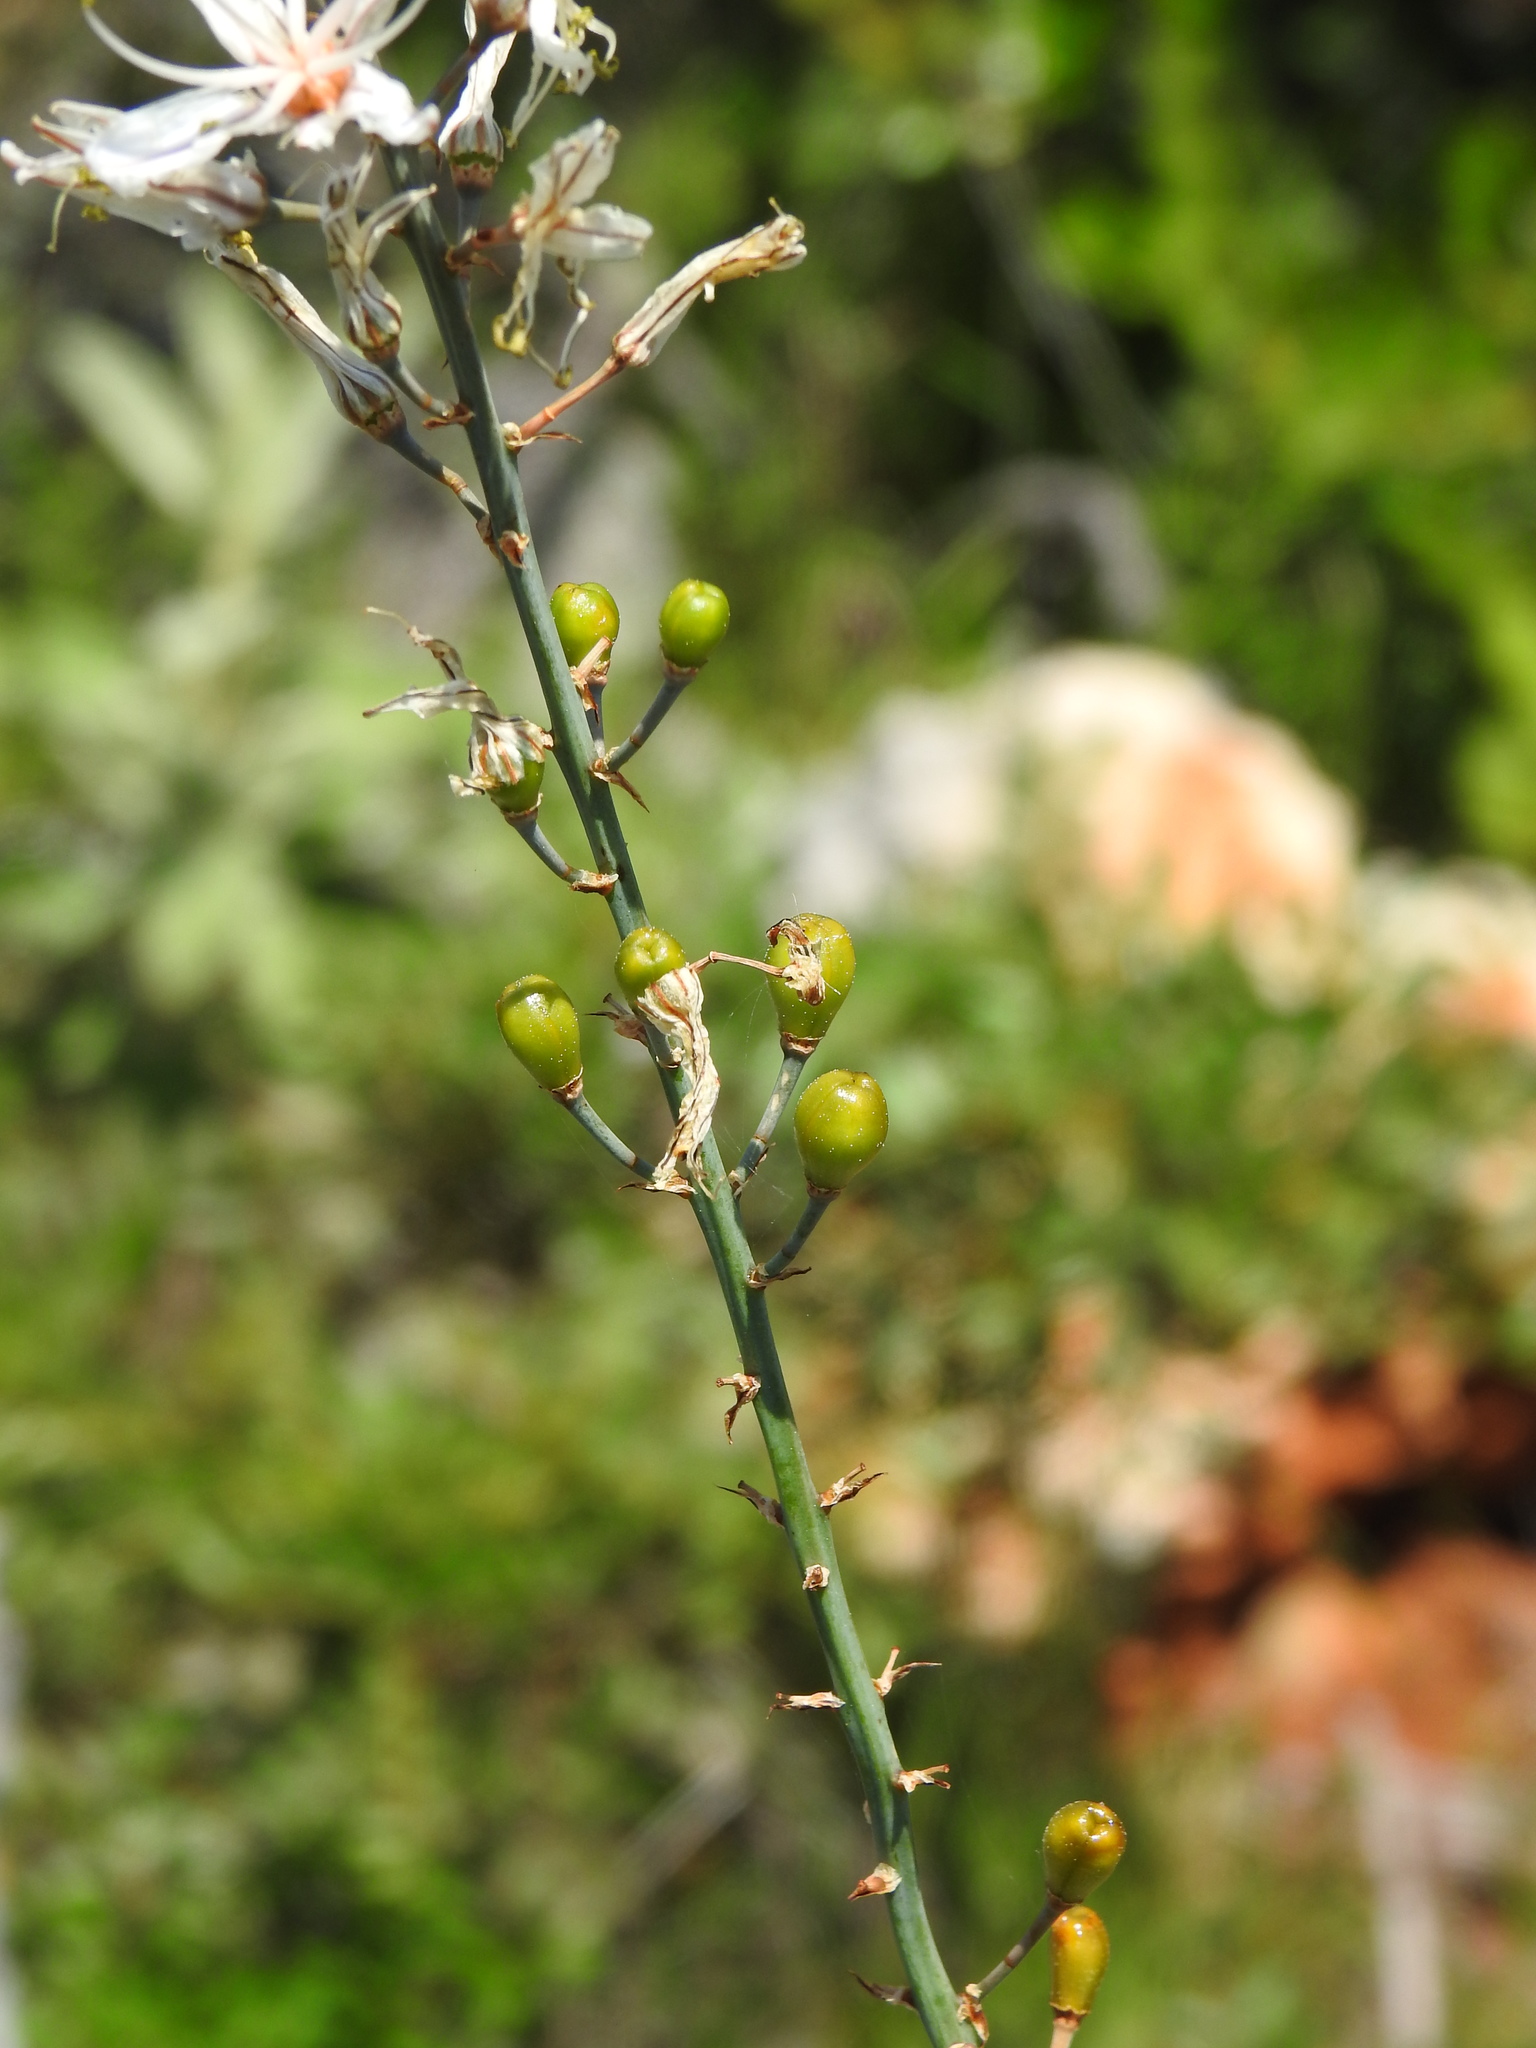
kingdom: Plantae
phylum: Tracheophyta
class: Liliopsida
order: Asparagales
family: Asphodelaceae
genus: Asphodelus
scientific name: Asphodelus serotinus
